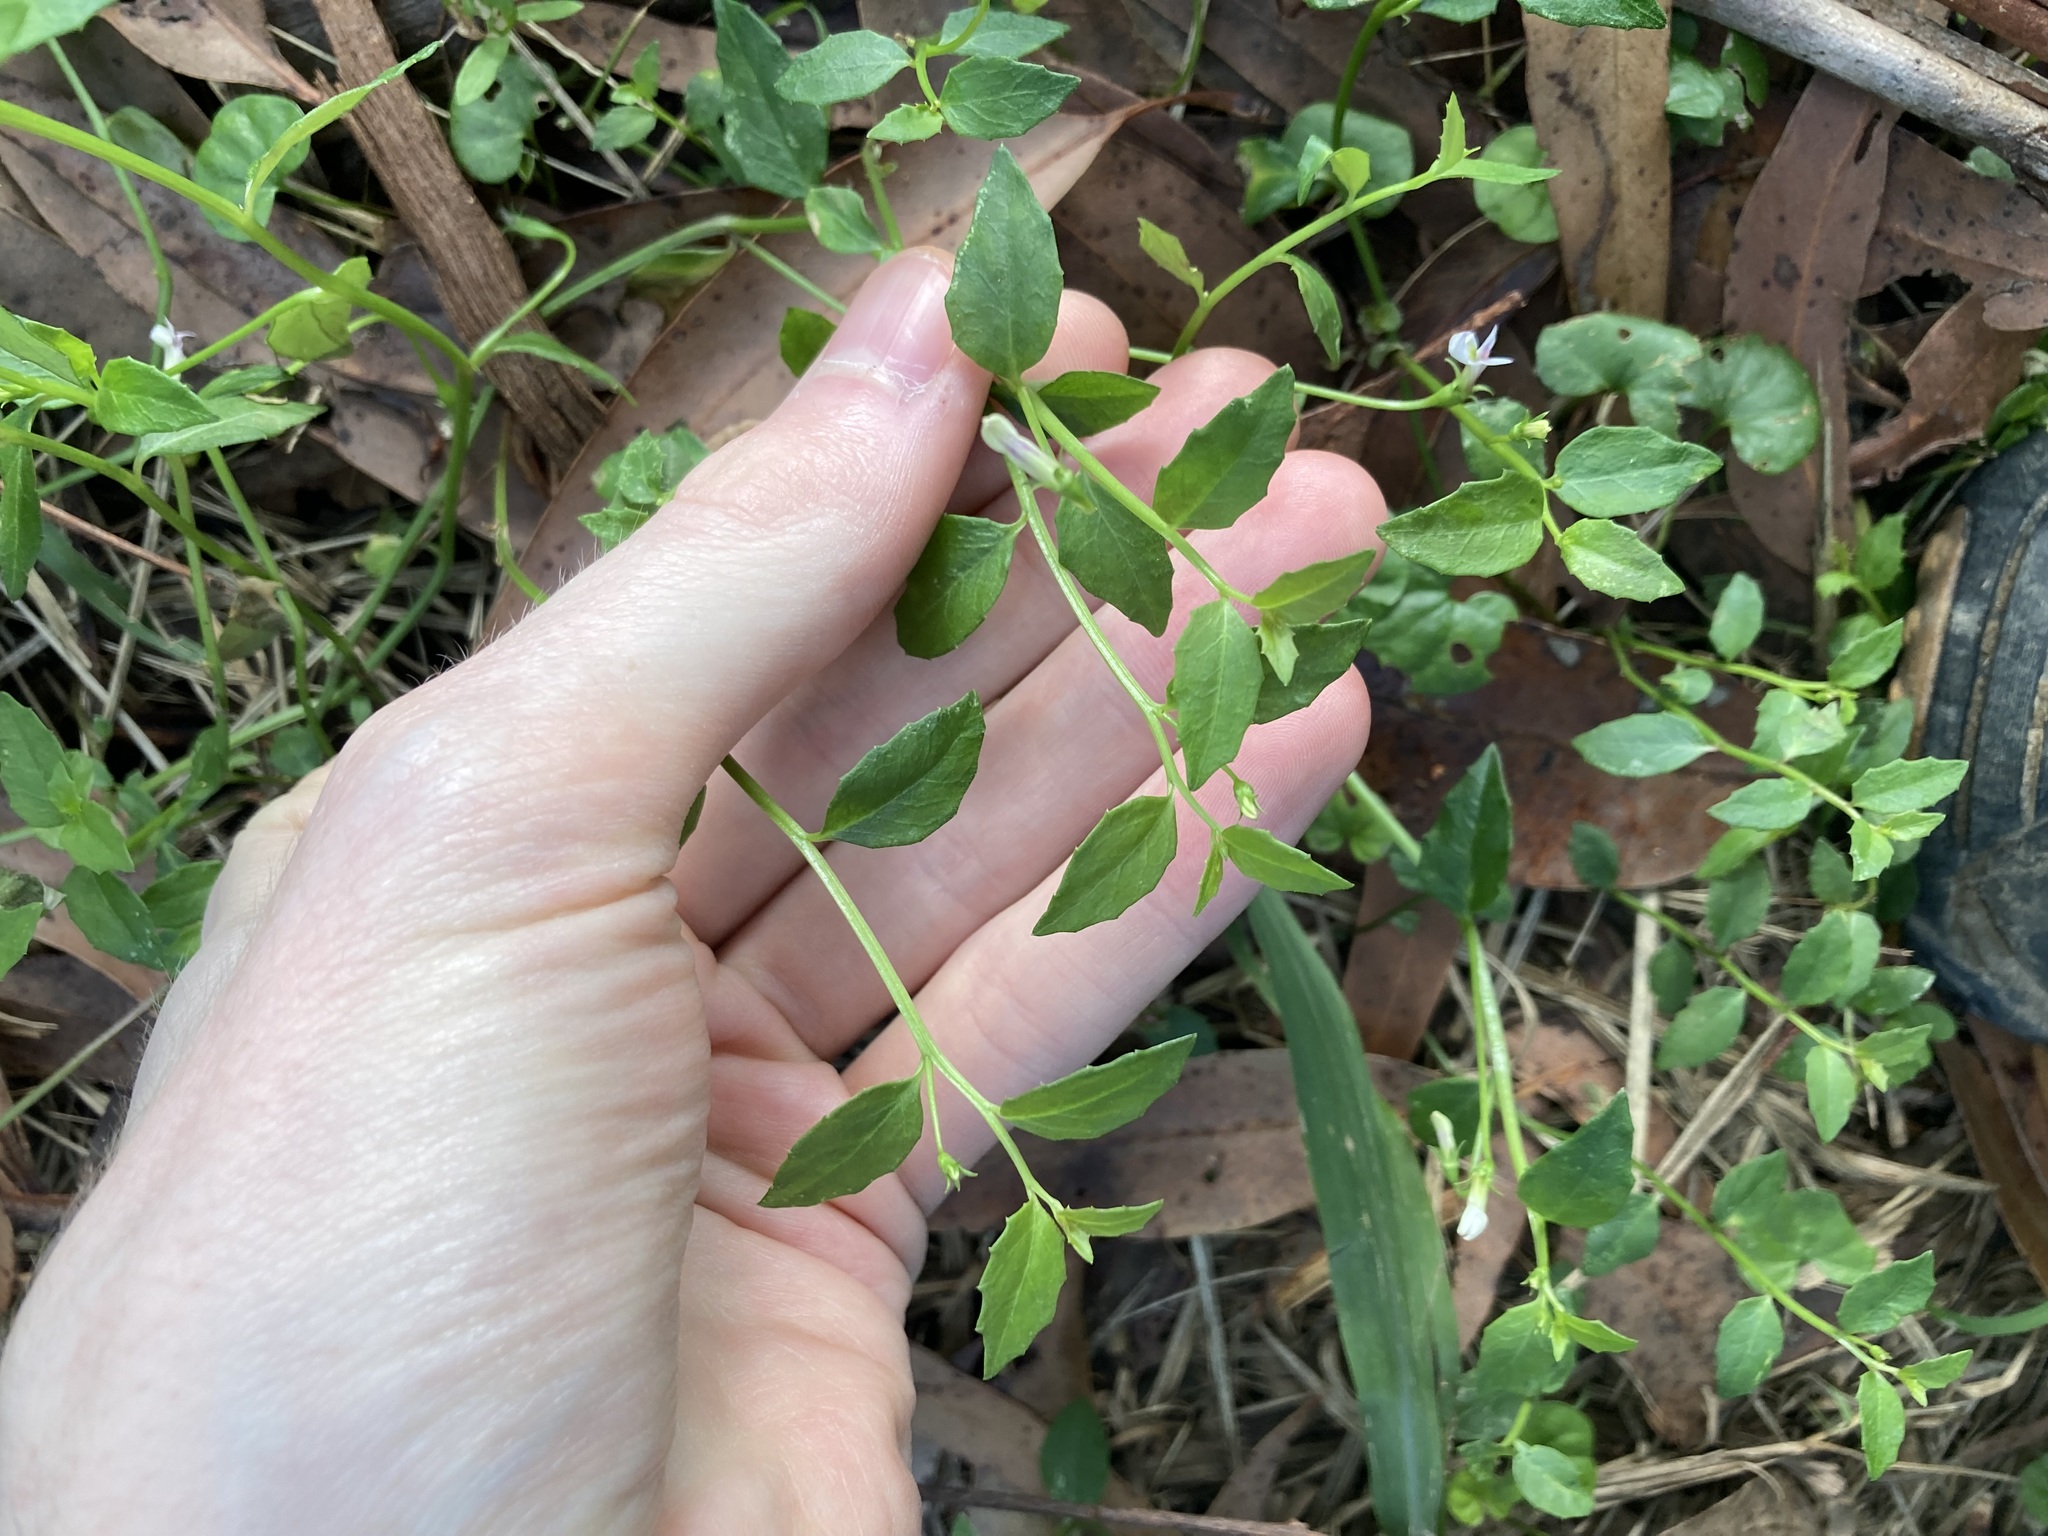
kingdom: Plantae
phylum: Tracheophyta
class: Magnoliopsida
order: Asterales
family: Campanulaceae
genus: Lobelia
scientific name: Lobelia purpurascens
